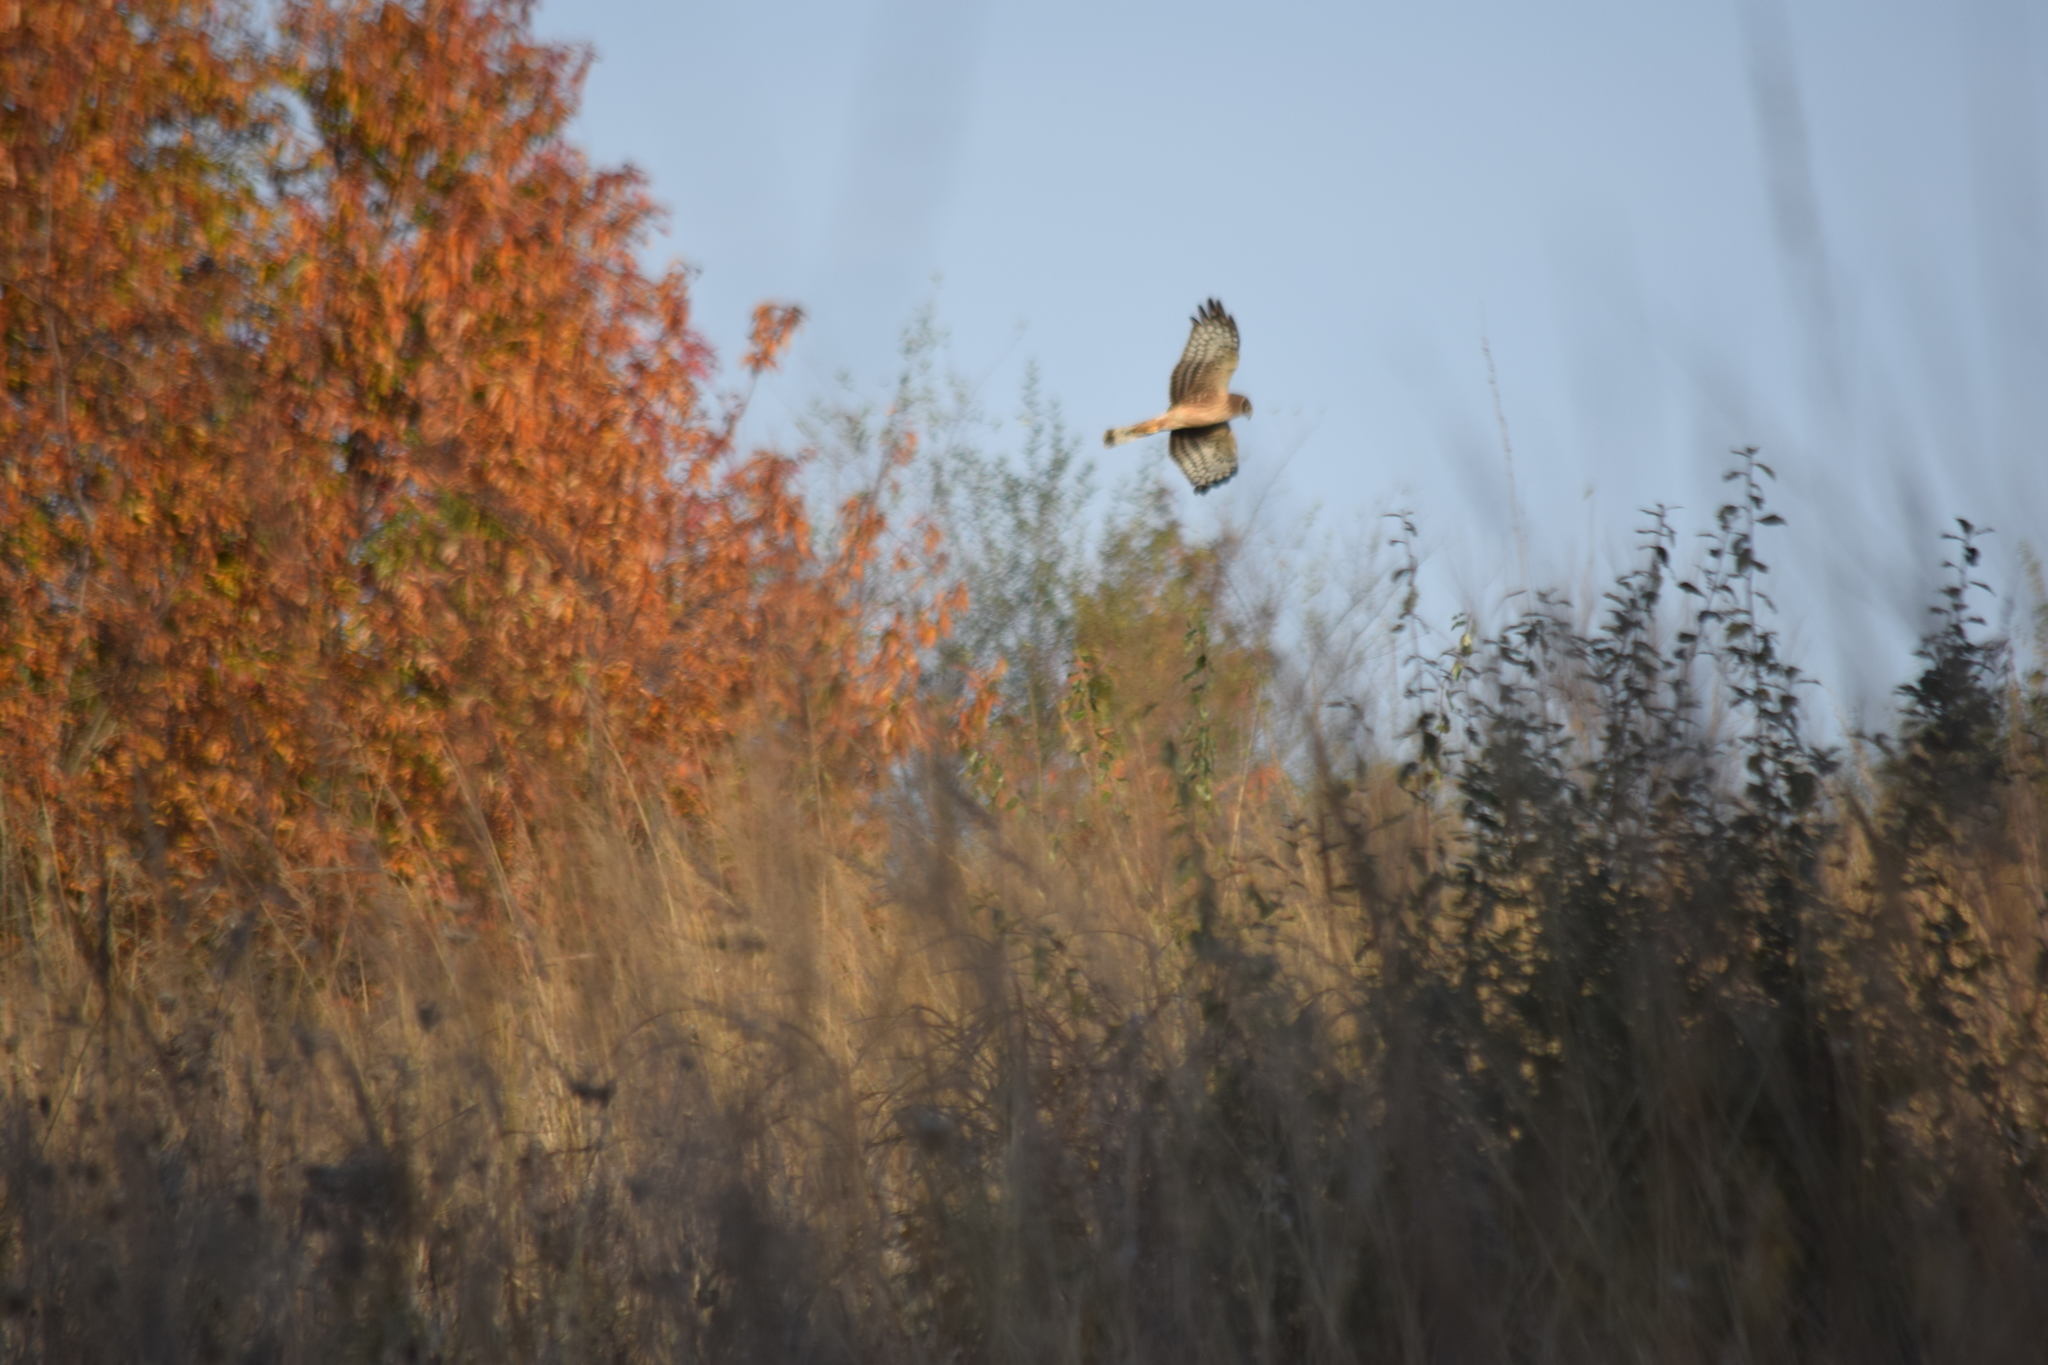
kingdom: Animalia
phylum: Chordata
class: Aves
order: Accipitriformes
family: Accipitridae
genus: Circus
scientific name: Circus cyaneus
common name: Hen harrier
